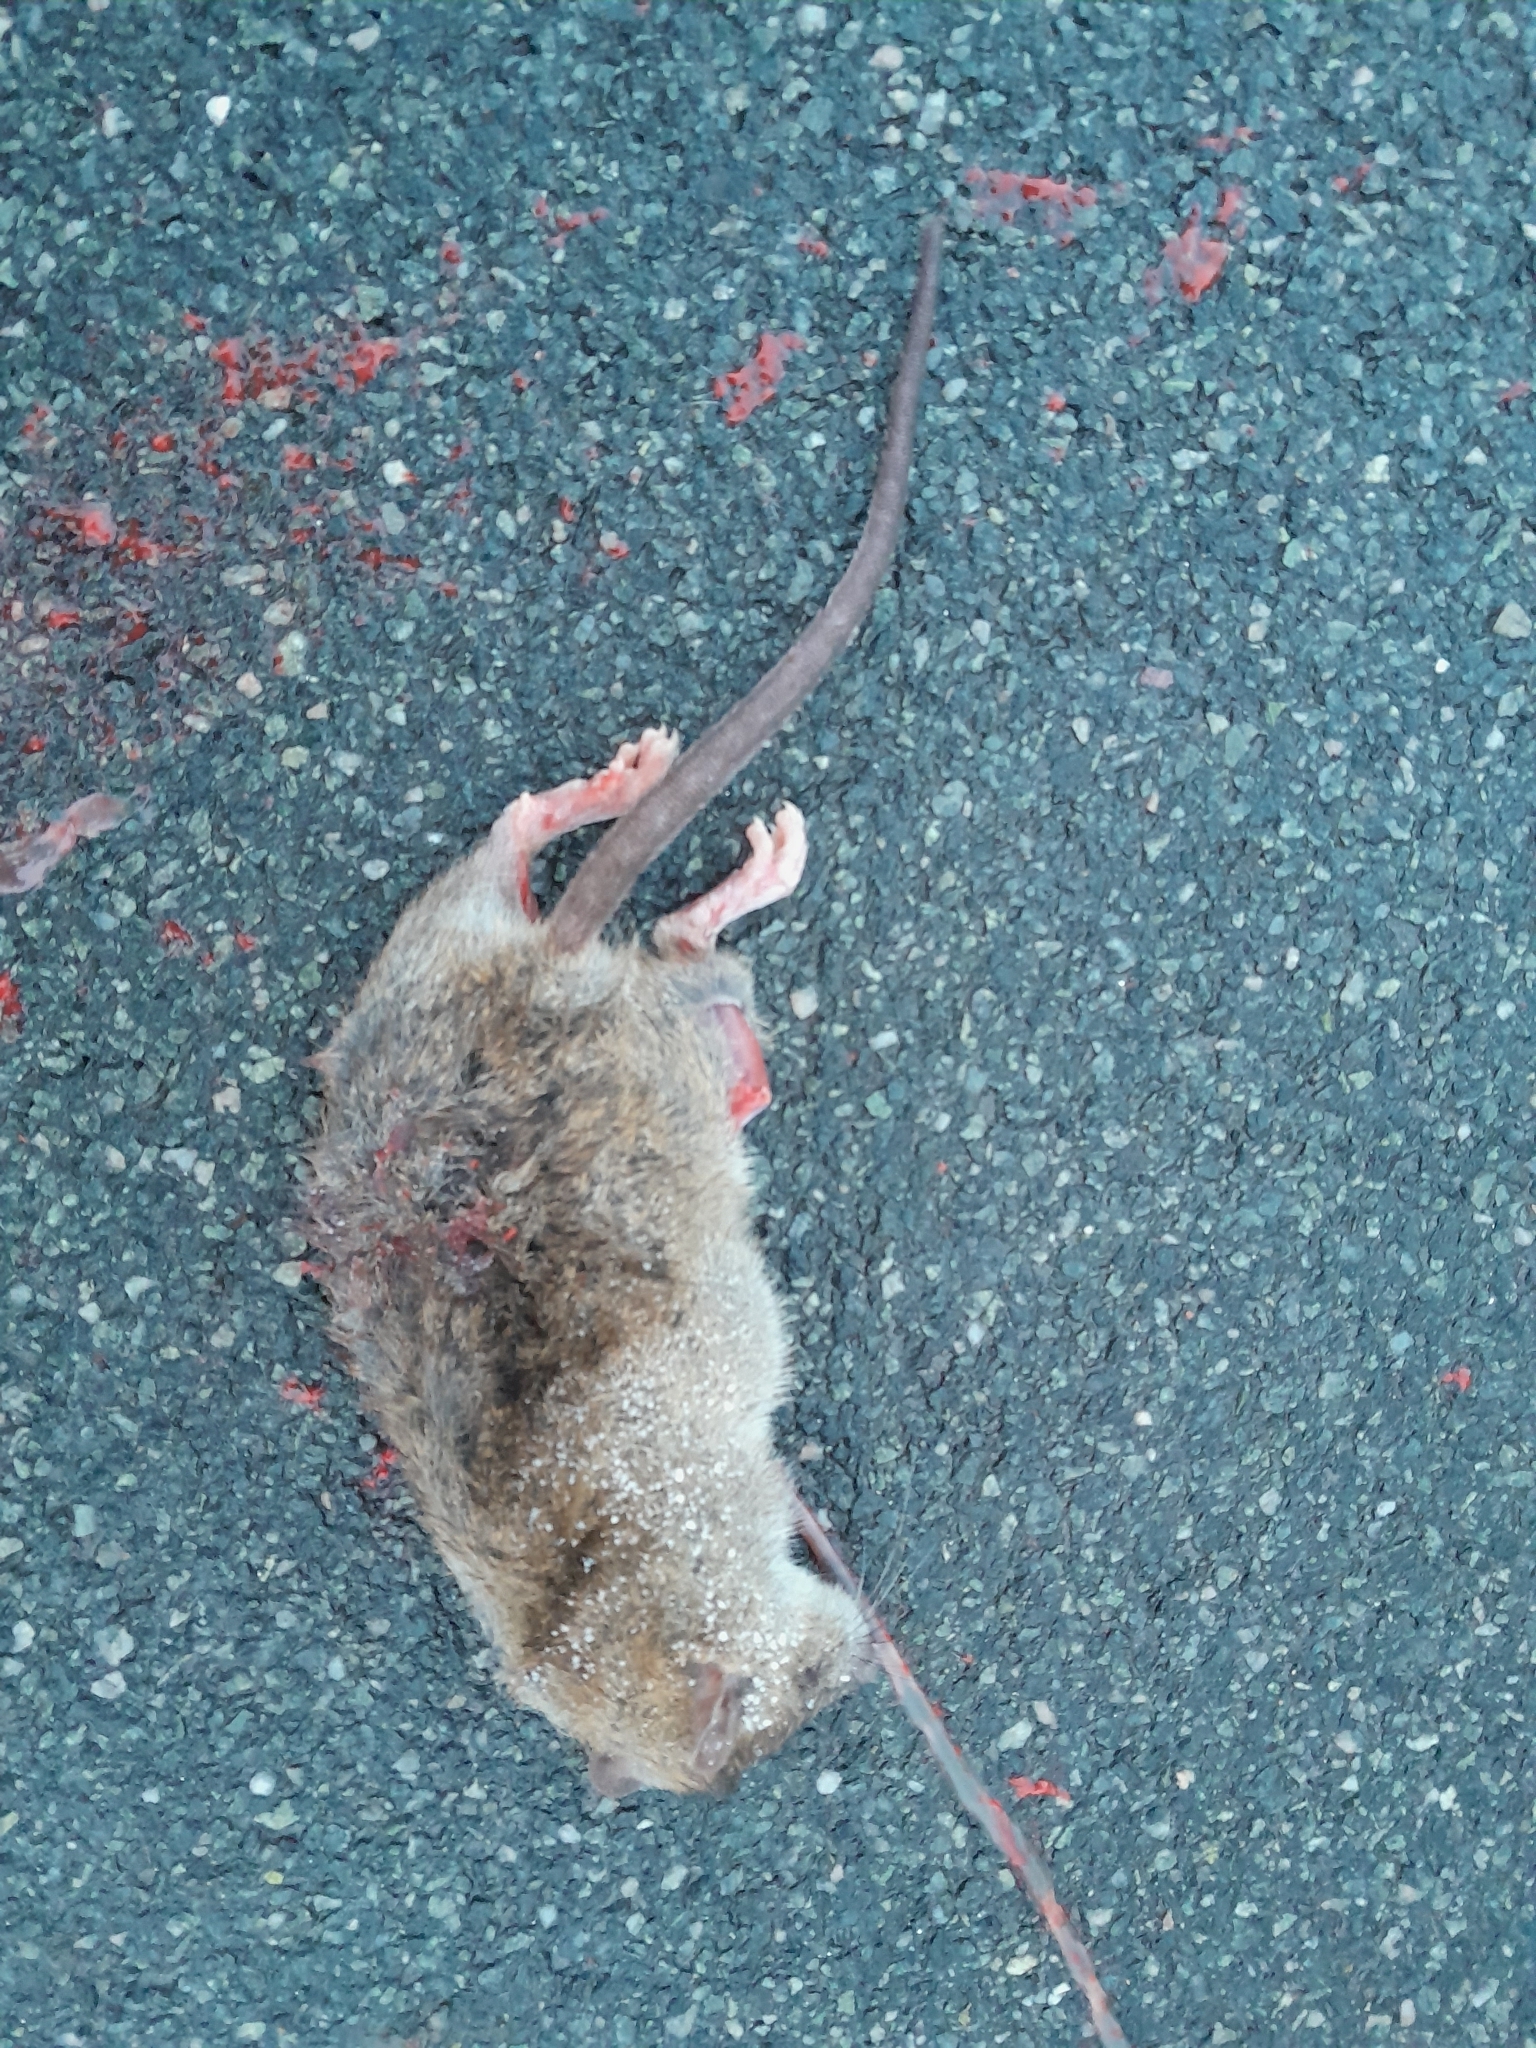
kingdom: Animalia
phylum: Chordata
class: Mammalia
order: Rodentia
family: Muridae
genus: Rattus
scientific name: Rattus norvegicus
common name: Brown rat
